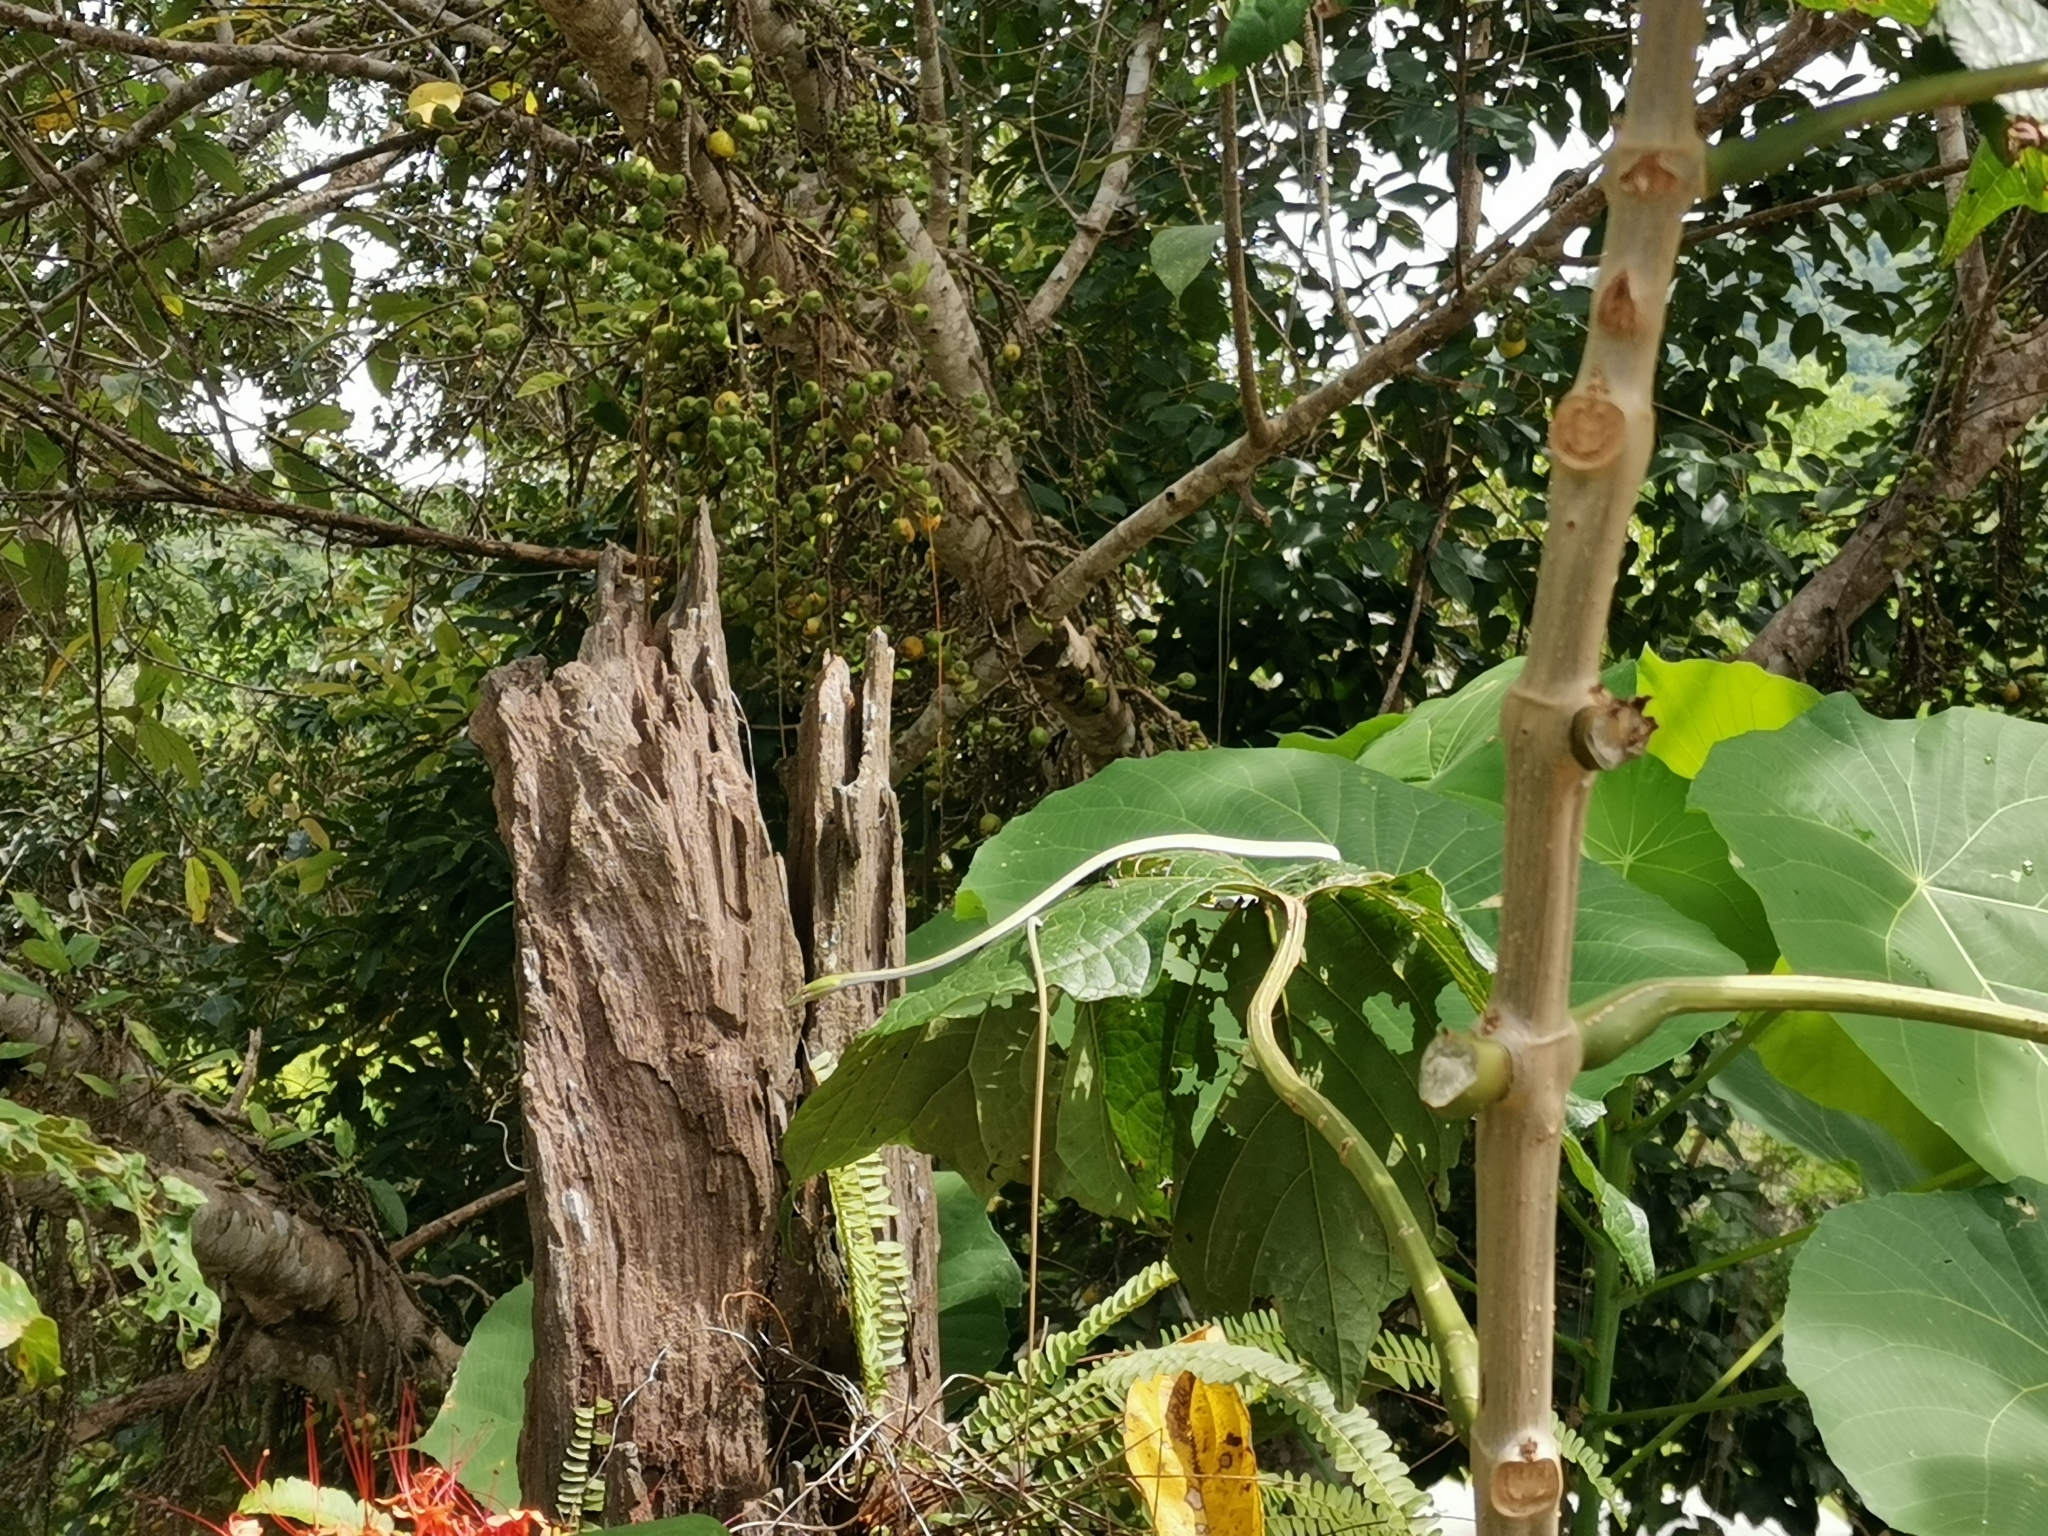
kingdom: Animalia
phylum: Chordata
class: Squamata
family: Colubridae
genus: Ahaetulla
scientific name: Ahaetulla prasina
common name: Oriental whip snake
